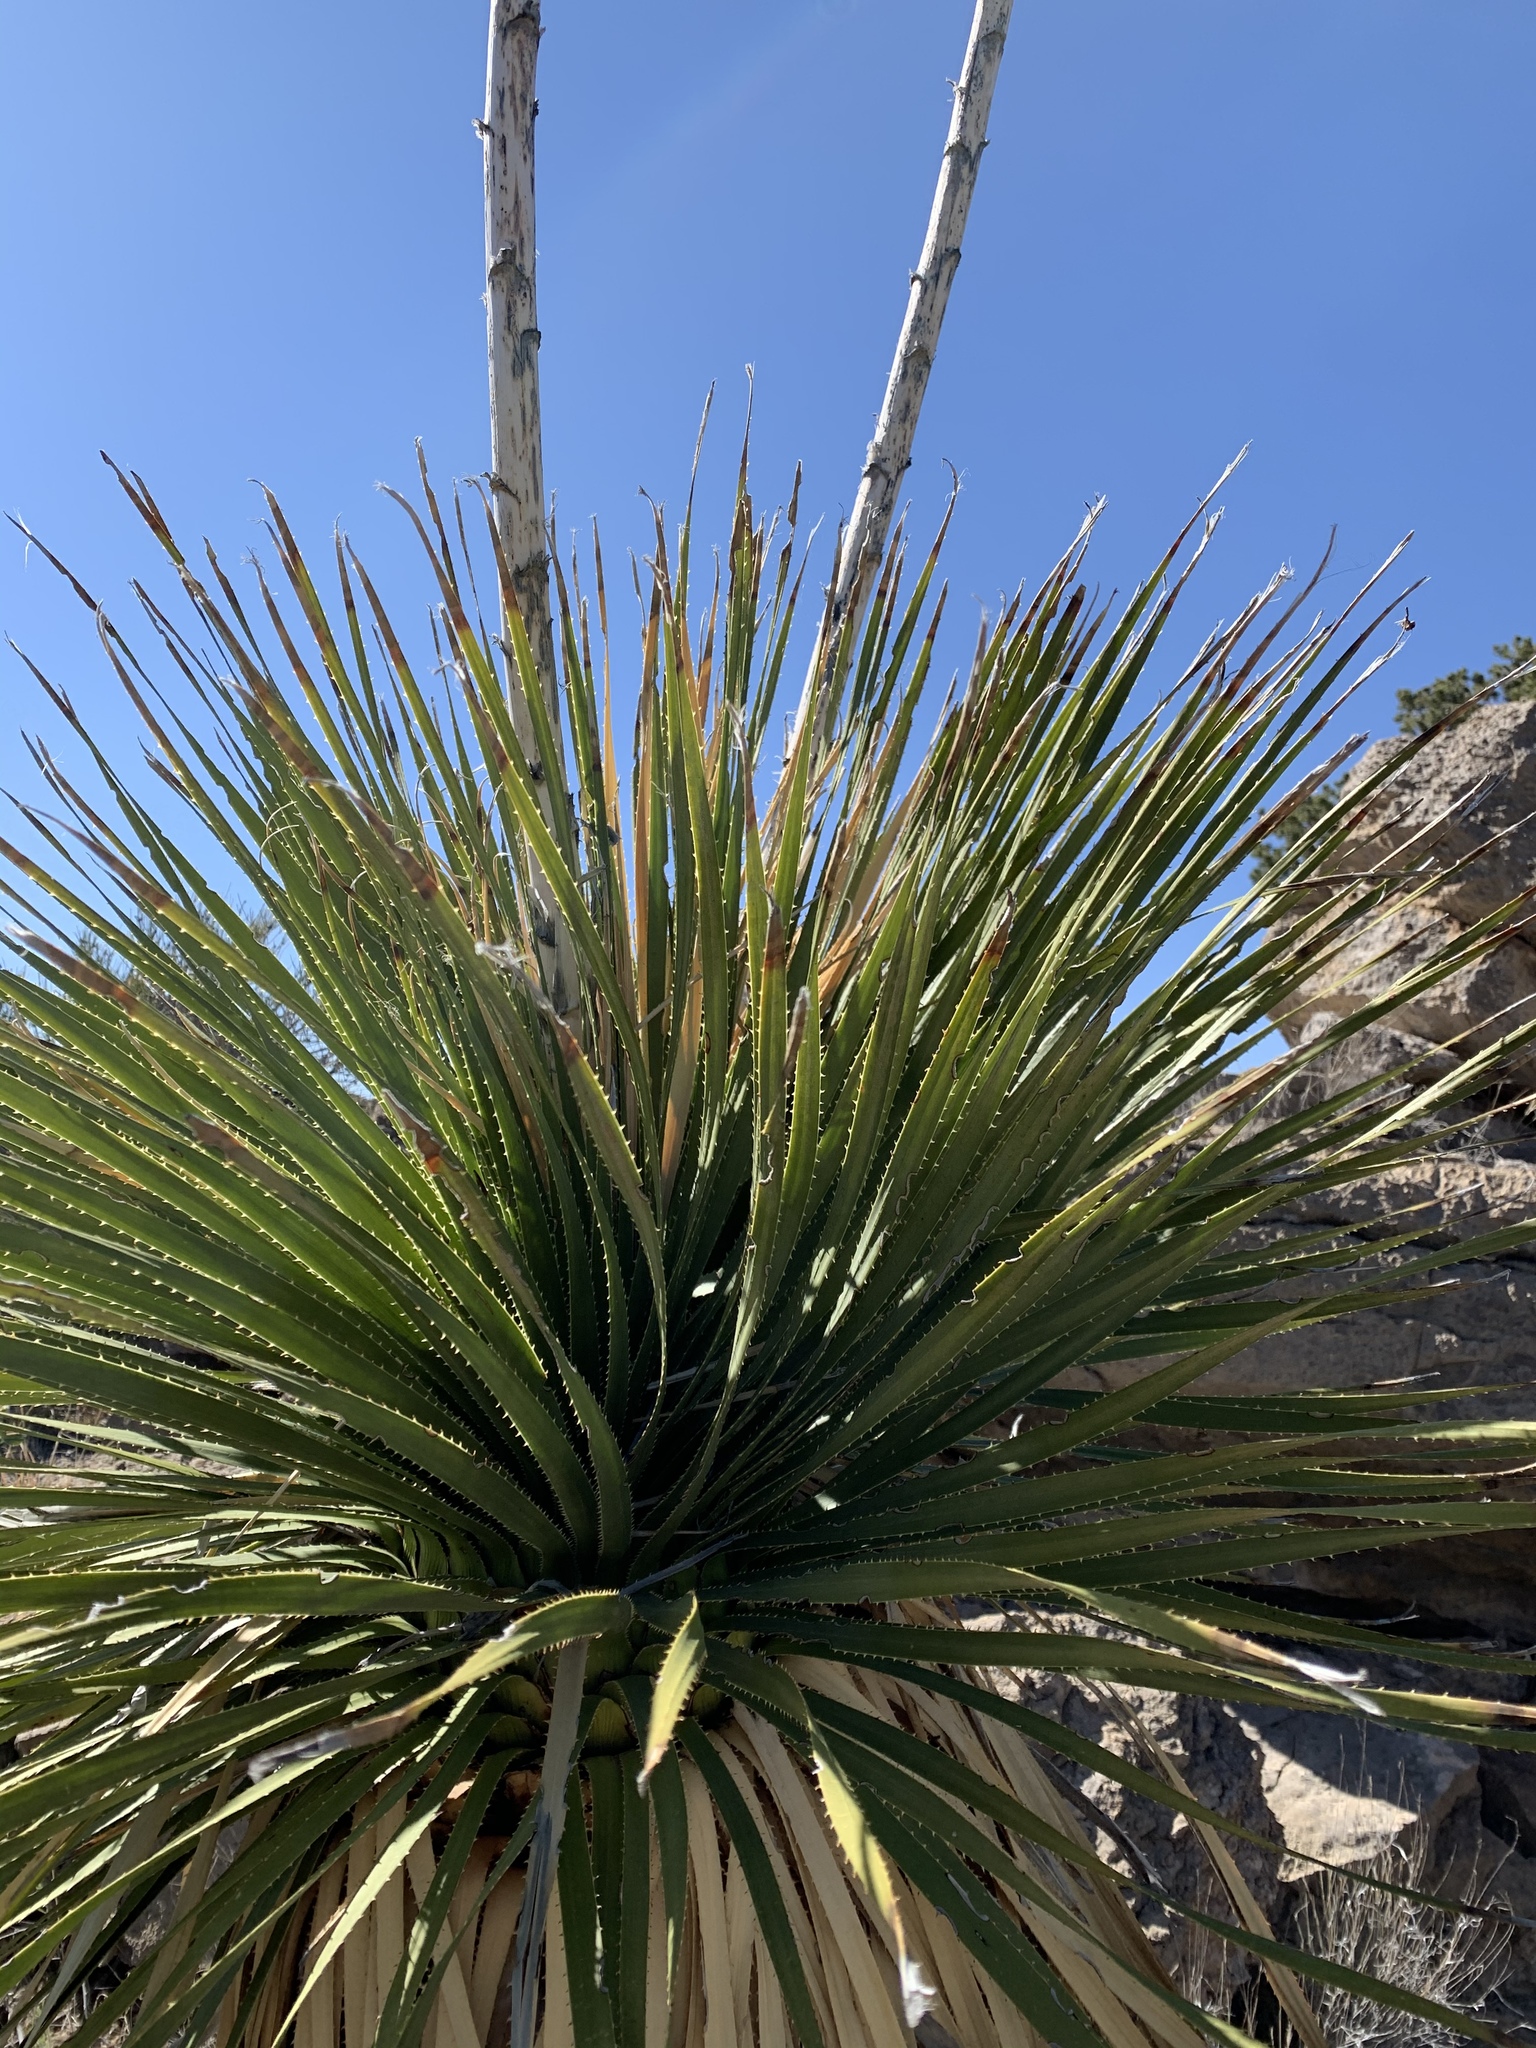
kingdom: Plantae
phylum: Tracheophyta
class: Liliopsida
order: Asparagales
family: Asparagaceae
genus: Dasylirion
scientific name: Dasylirion wheeleri
